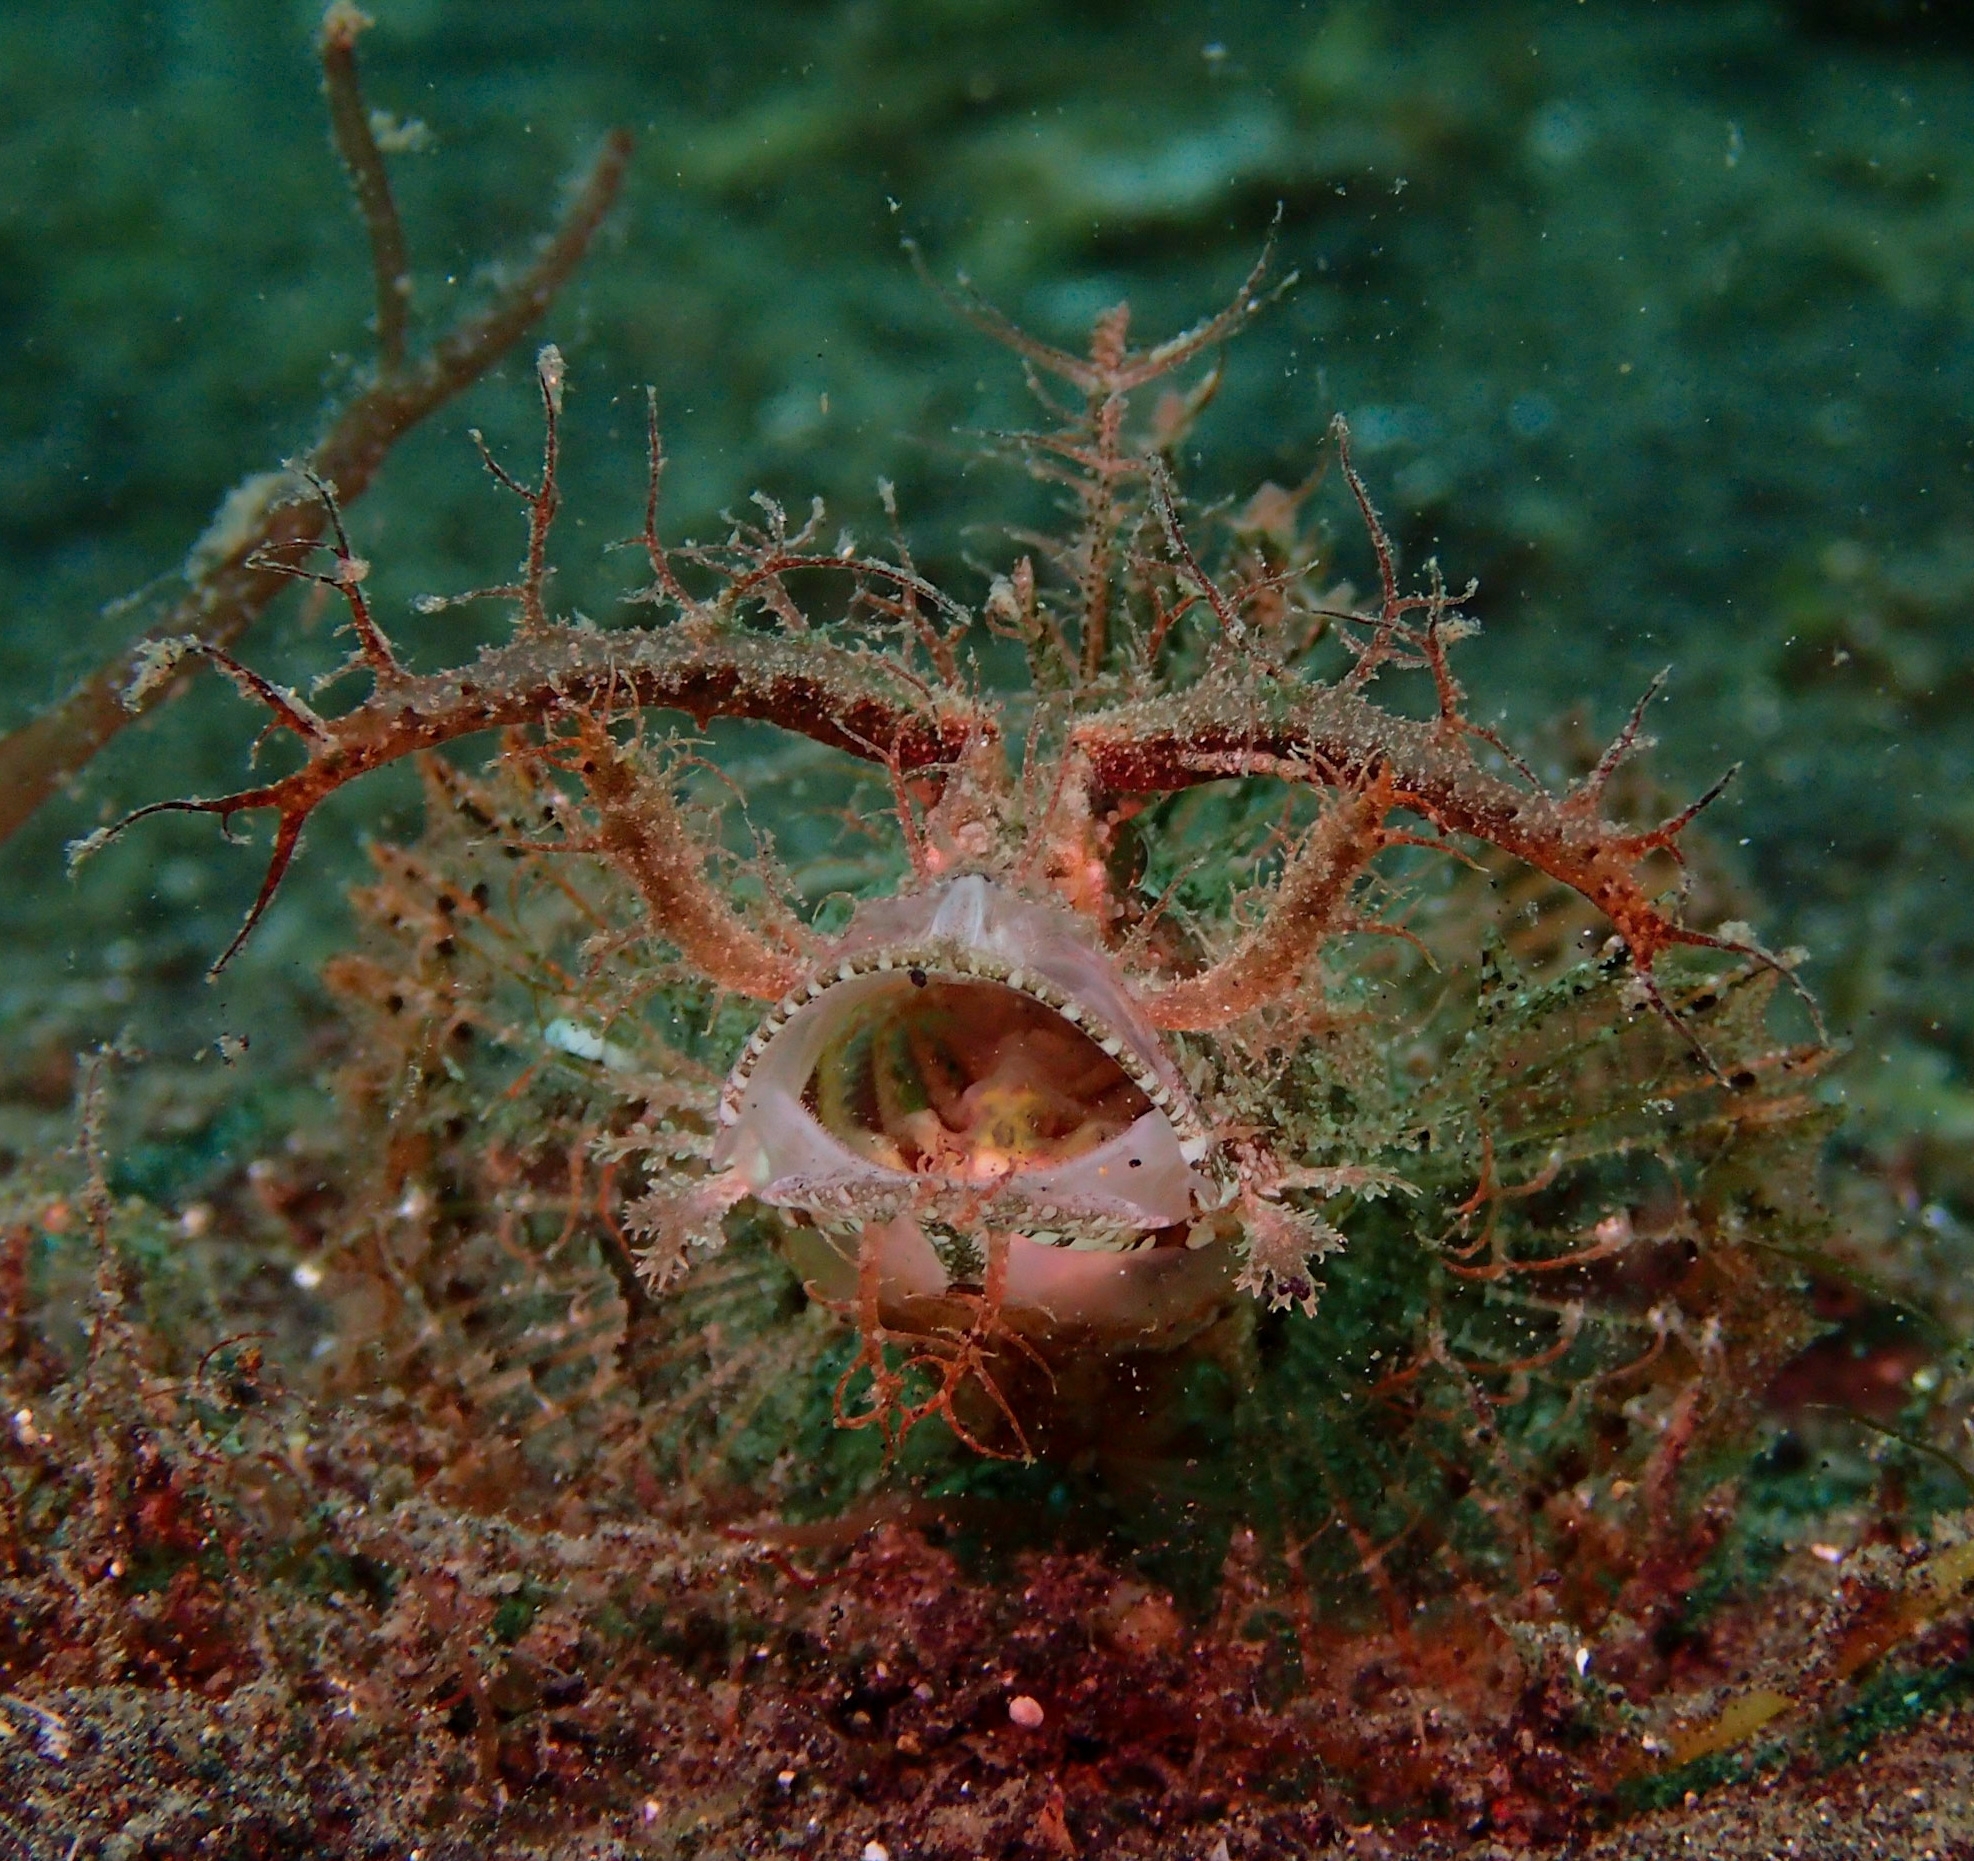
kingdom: Animalia
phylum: Chordata
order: Scorpaeniformes
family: Scorpaenidae
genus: Pteroidichthys
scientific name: Pteroidichthys amboinensis
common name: Ambon scorpionfish
